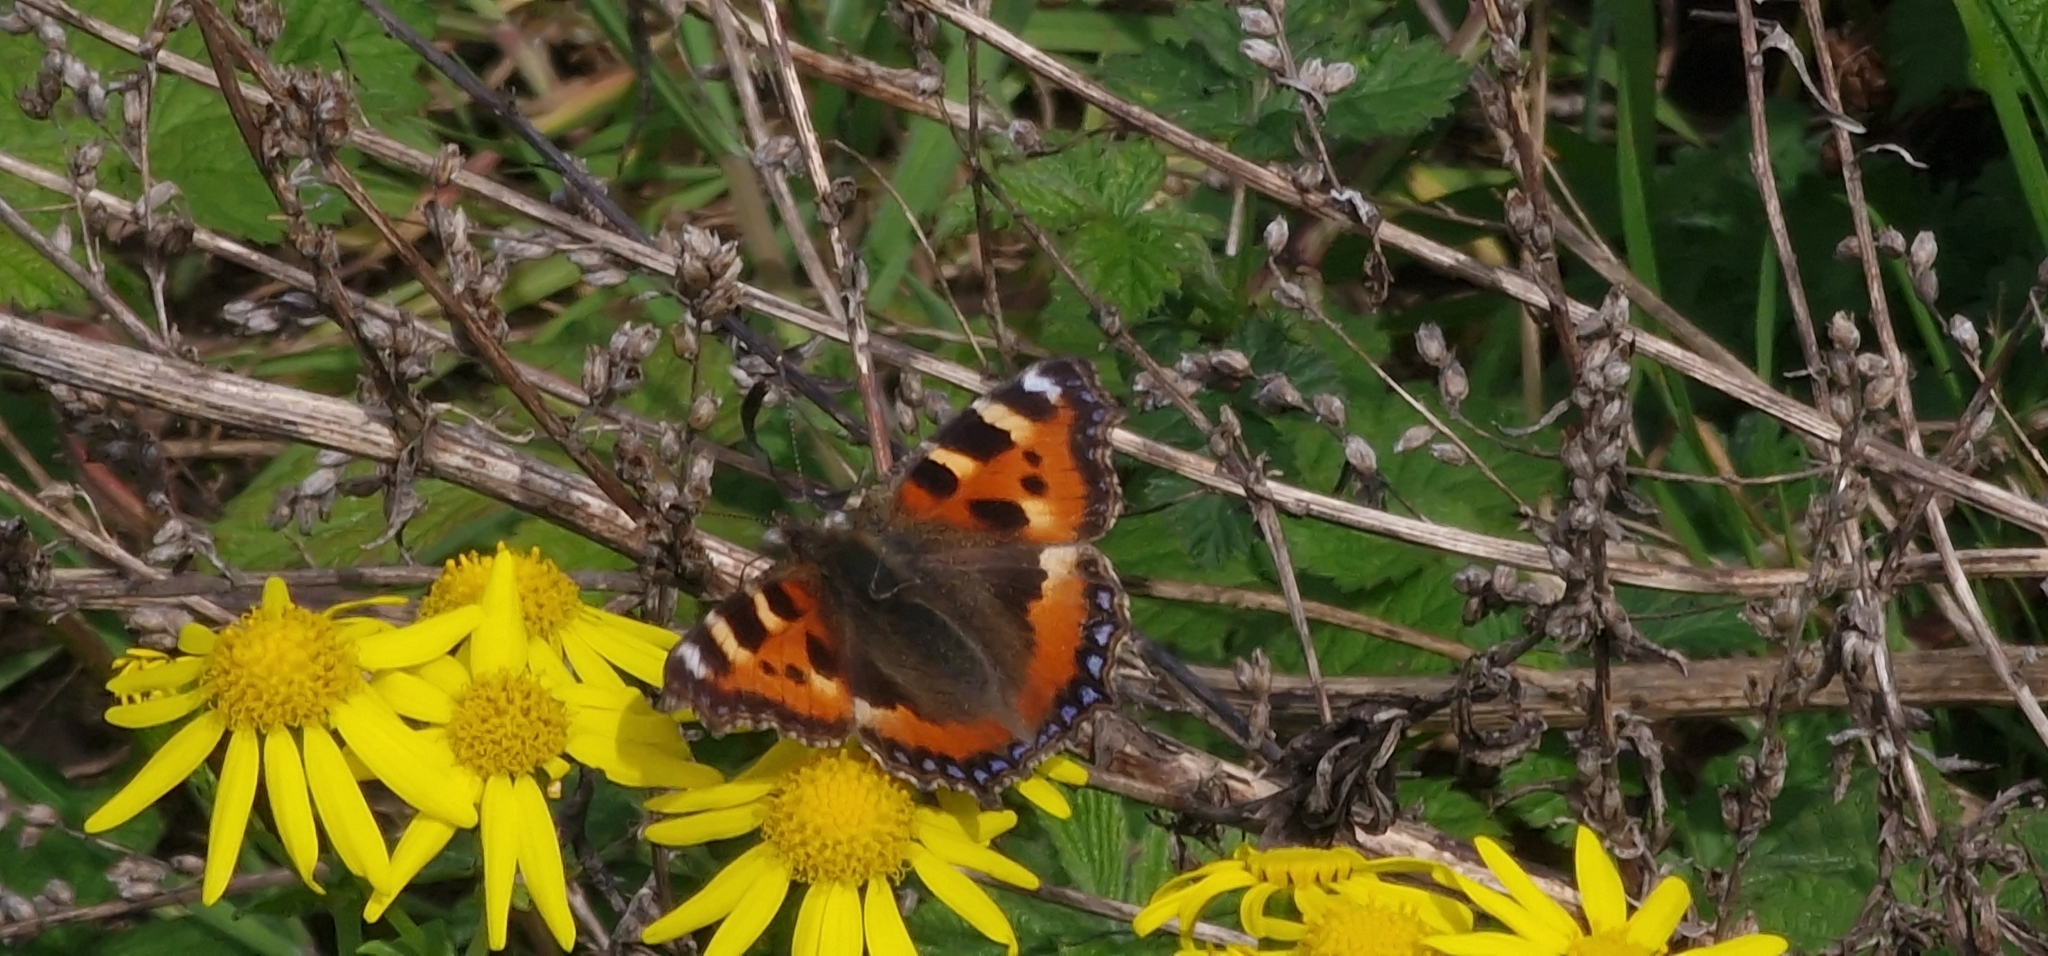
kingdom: Animalia
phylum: Arthropoda
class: Insecta
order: Lepidoptera
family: Nymphalidae
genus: Aglais
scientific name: Aglais urticae
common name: Small tortoiseshell
